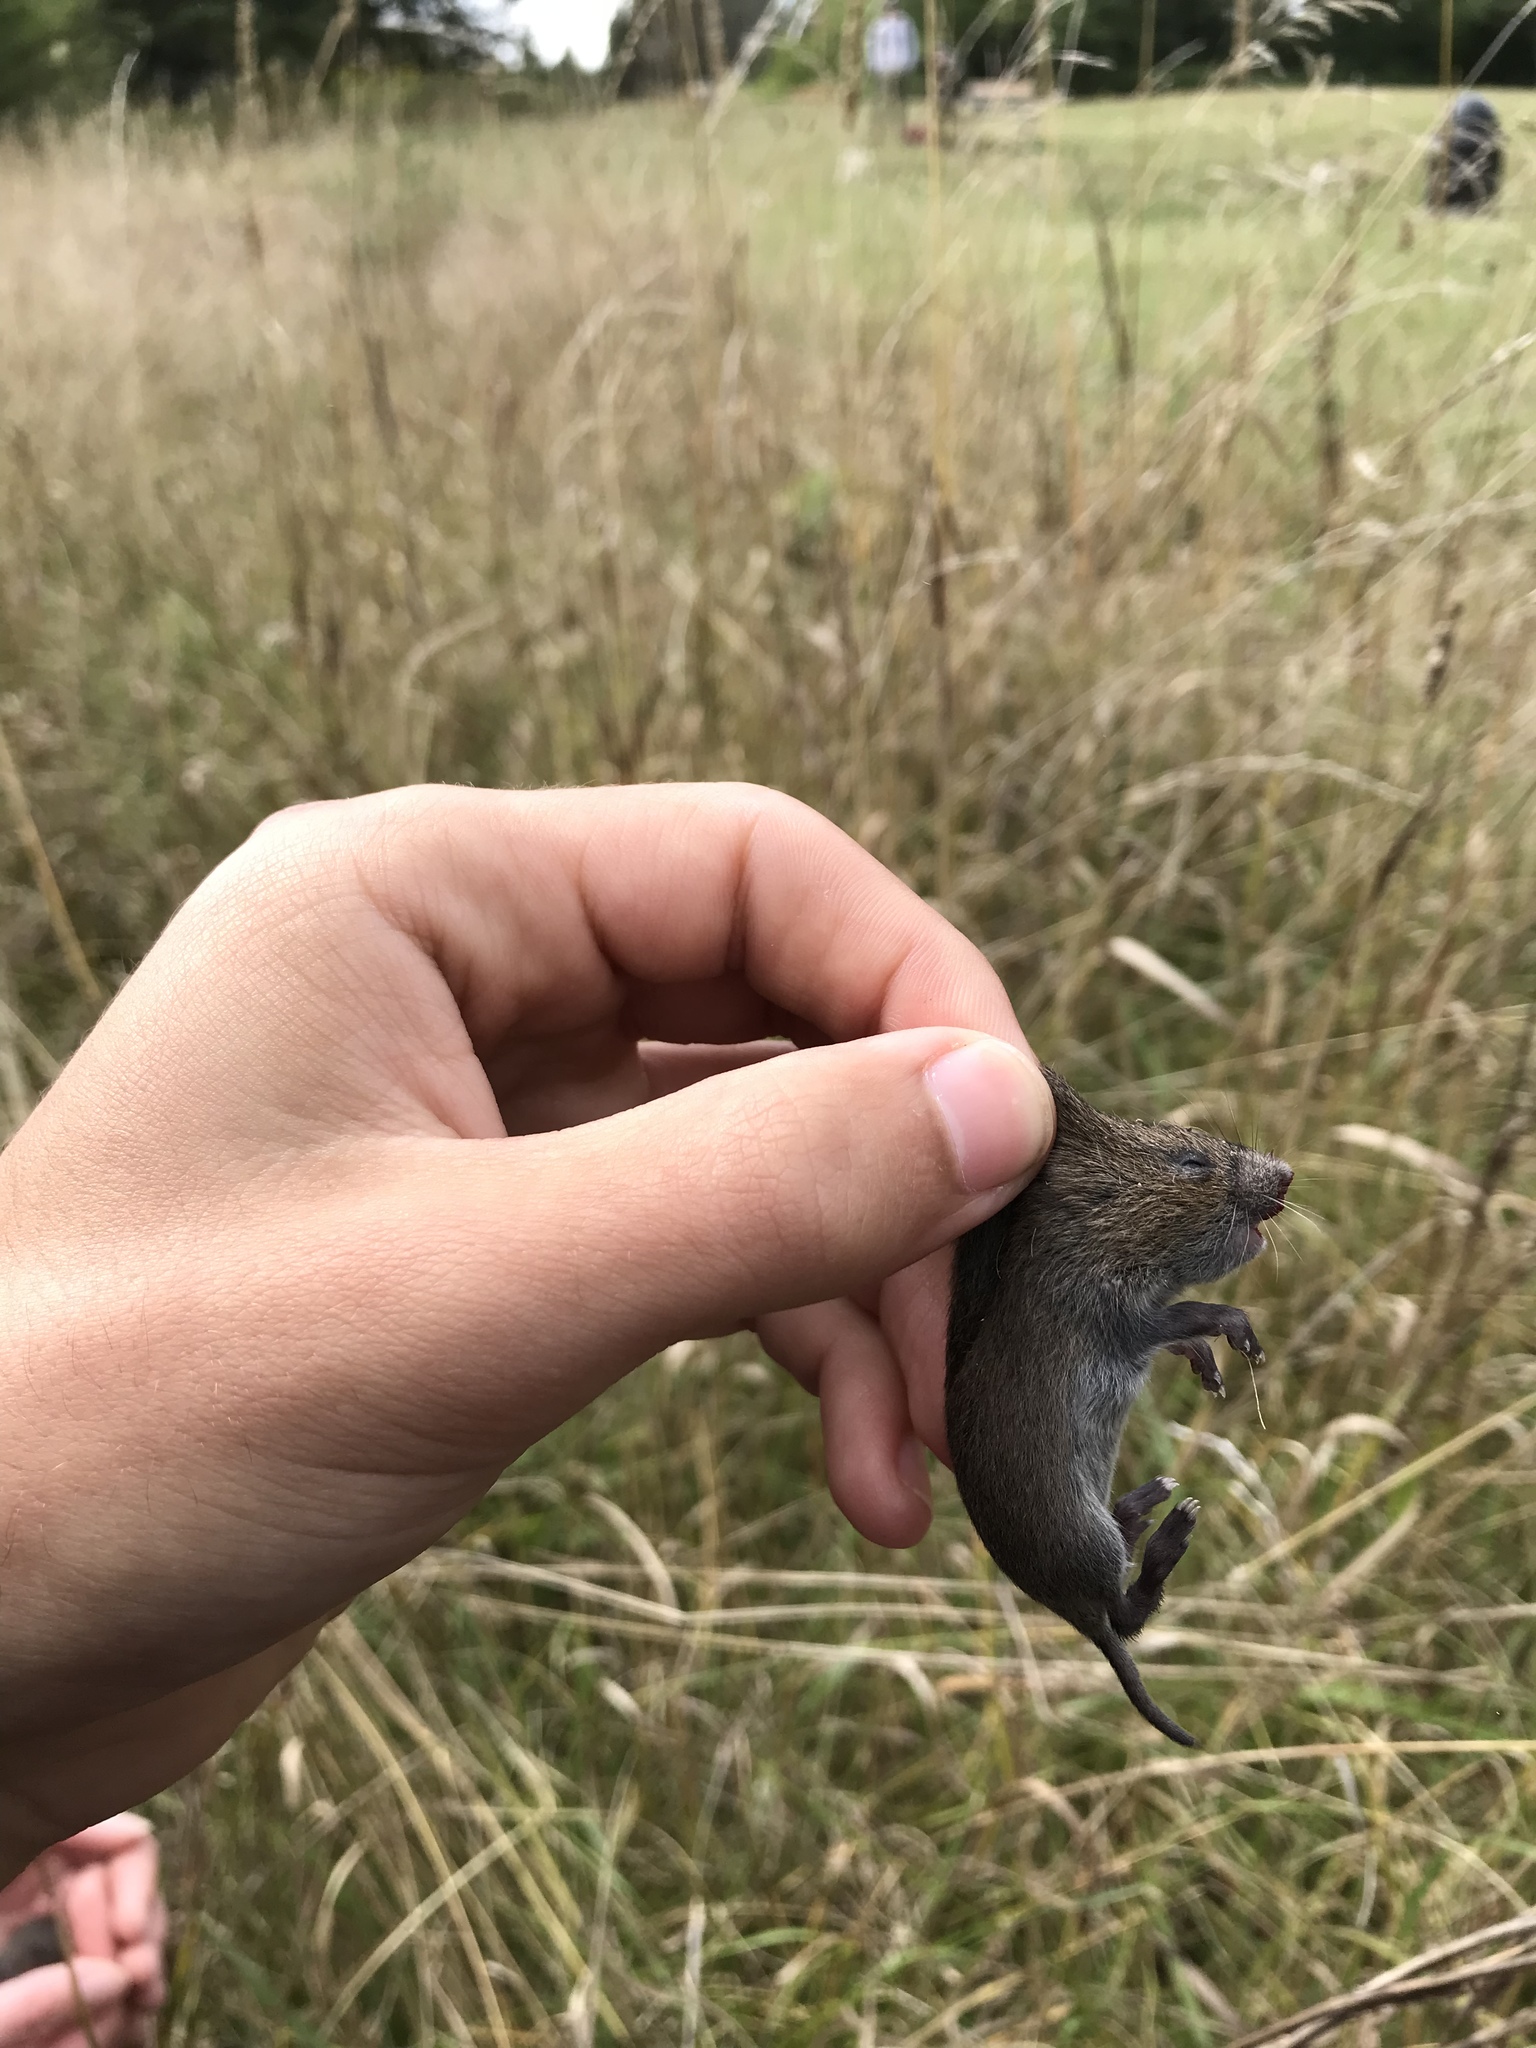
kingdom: Animalia
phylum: Chordata
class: Mammalia
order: Rodentia
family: Cricetidae
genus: Microtus
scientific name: Microtus pennsylvanicus
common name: Meadow vole
